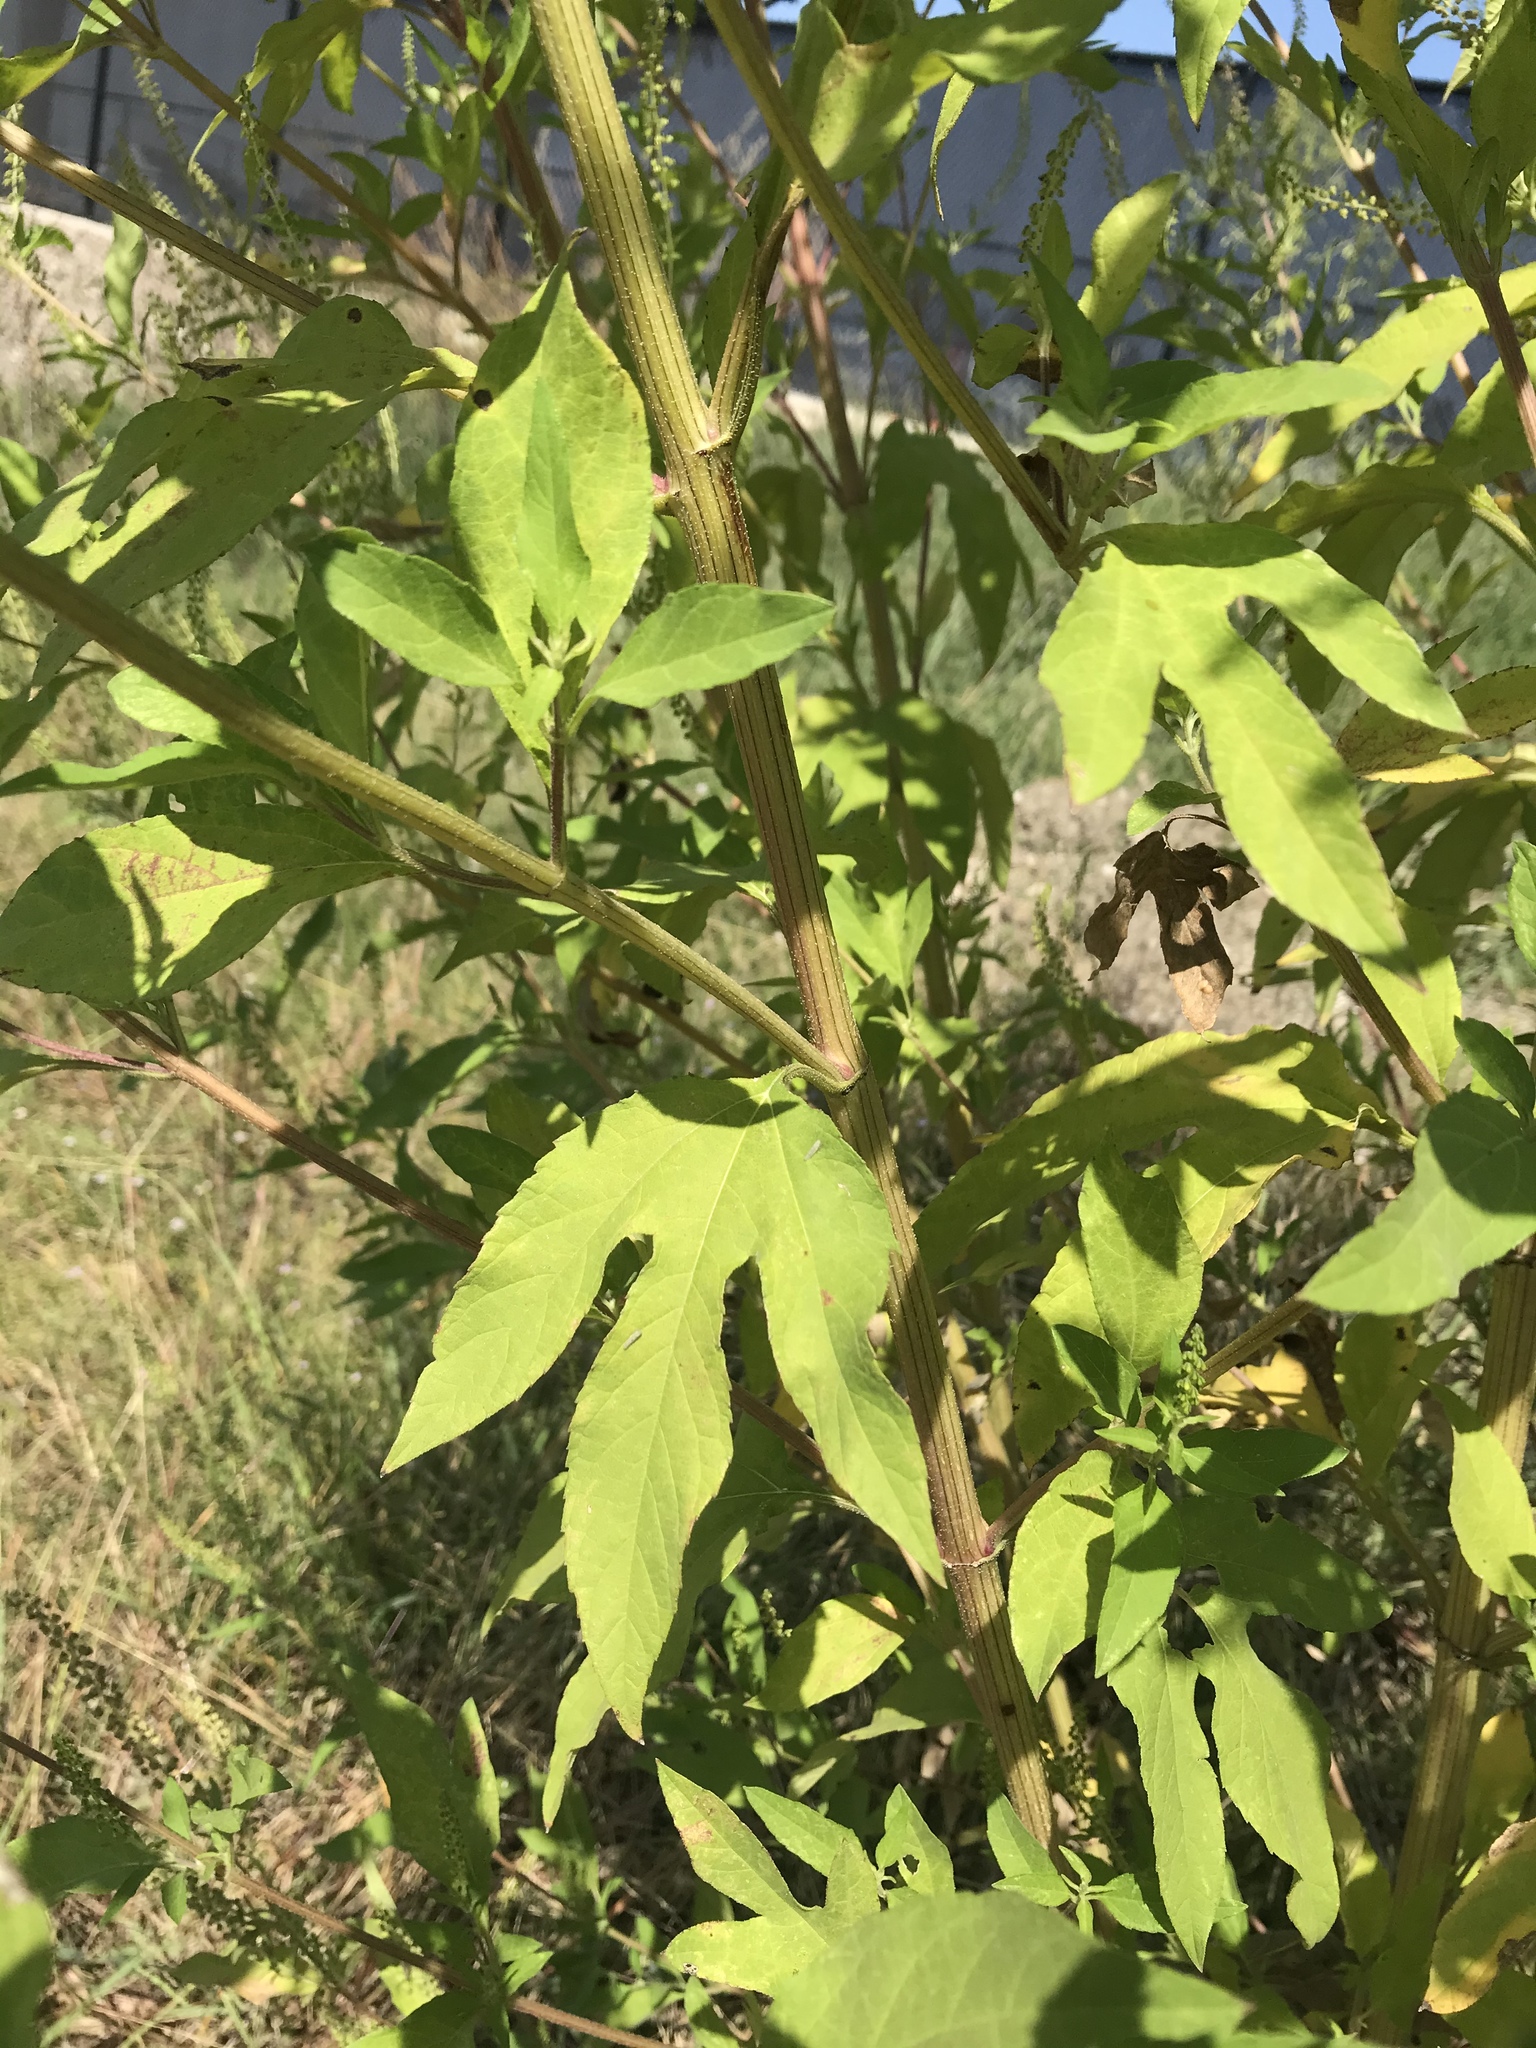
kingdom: Plantae
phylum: Tracheophyta
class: Magnoliopsida
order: Asterales
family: Asteraceae
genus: Ambrosia
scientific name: Ambrosia trifida
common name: Giant ragweed
